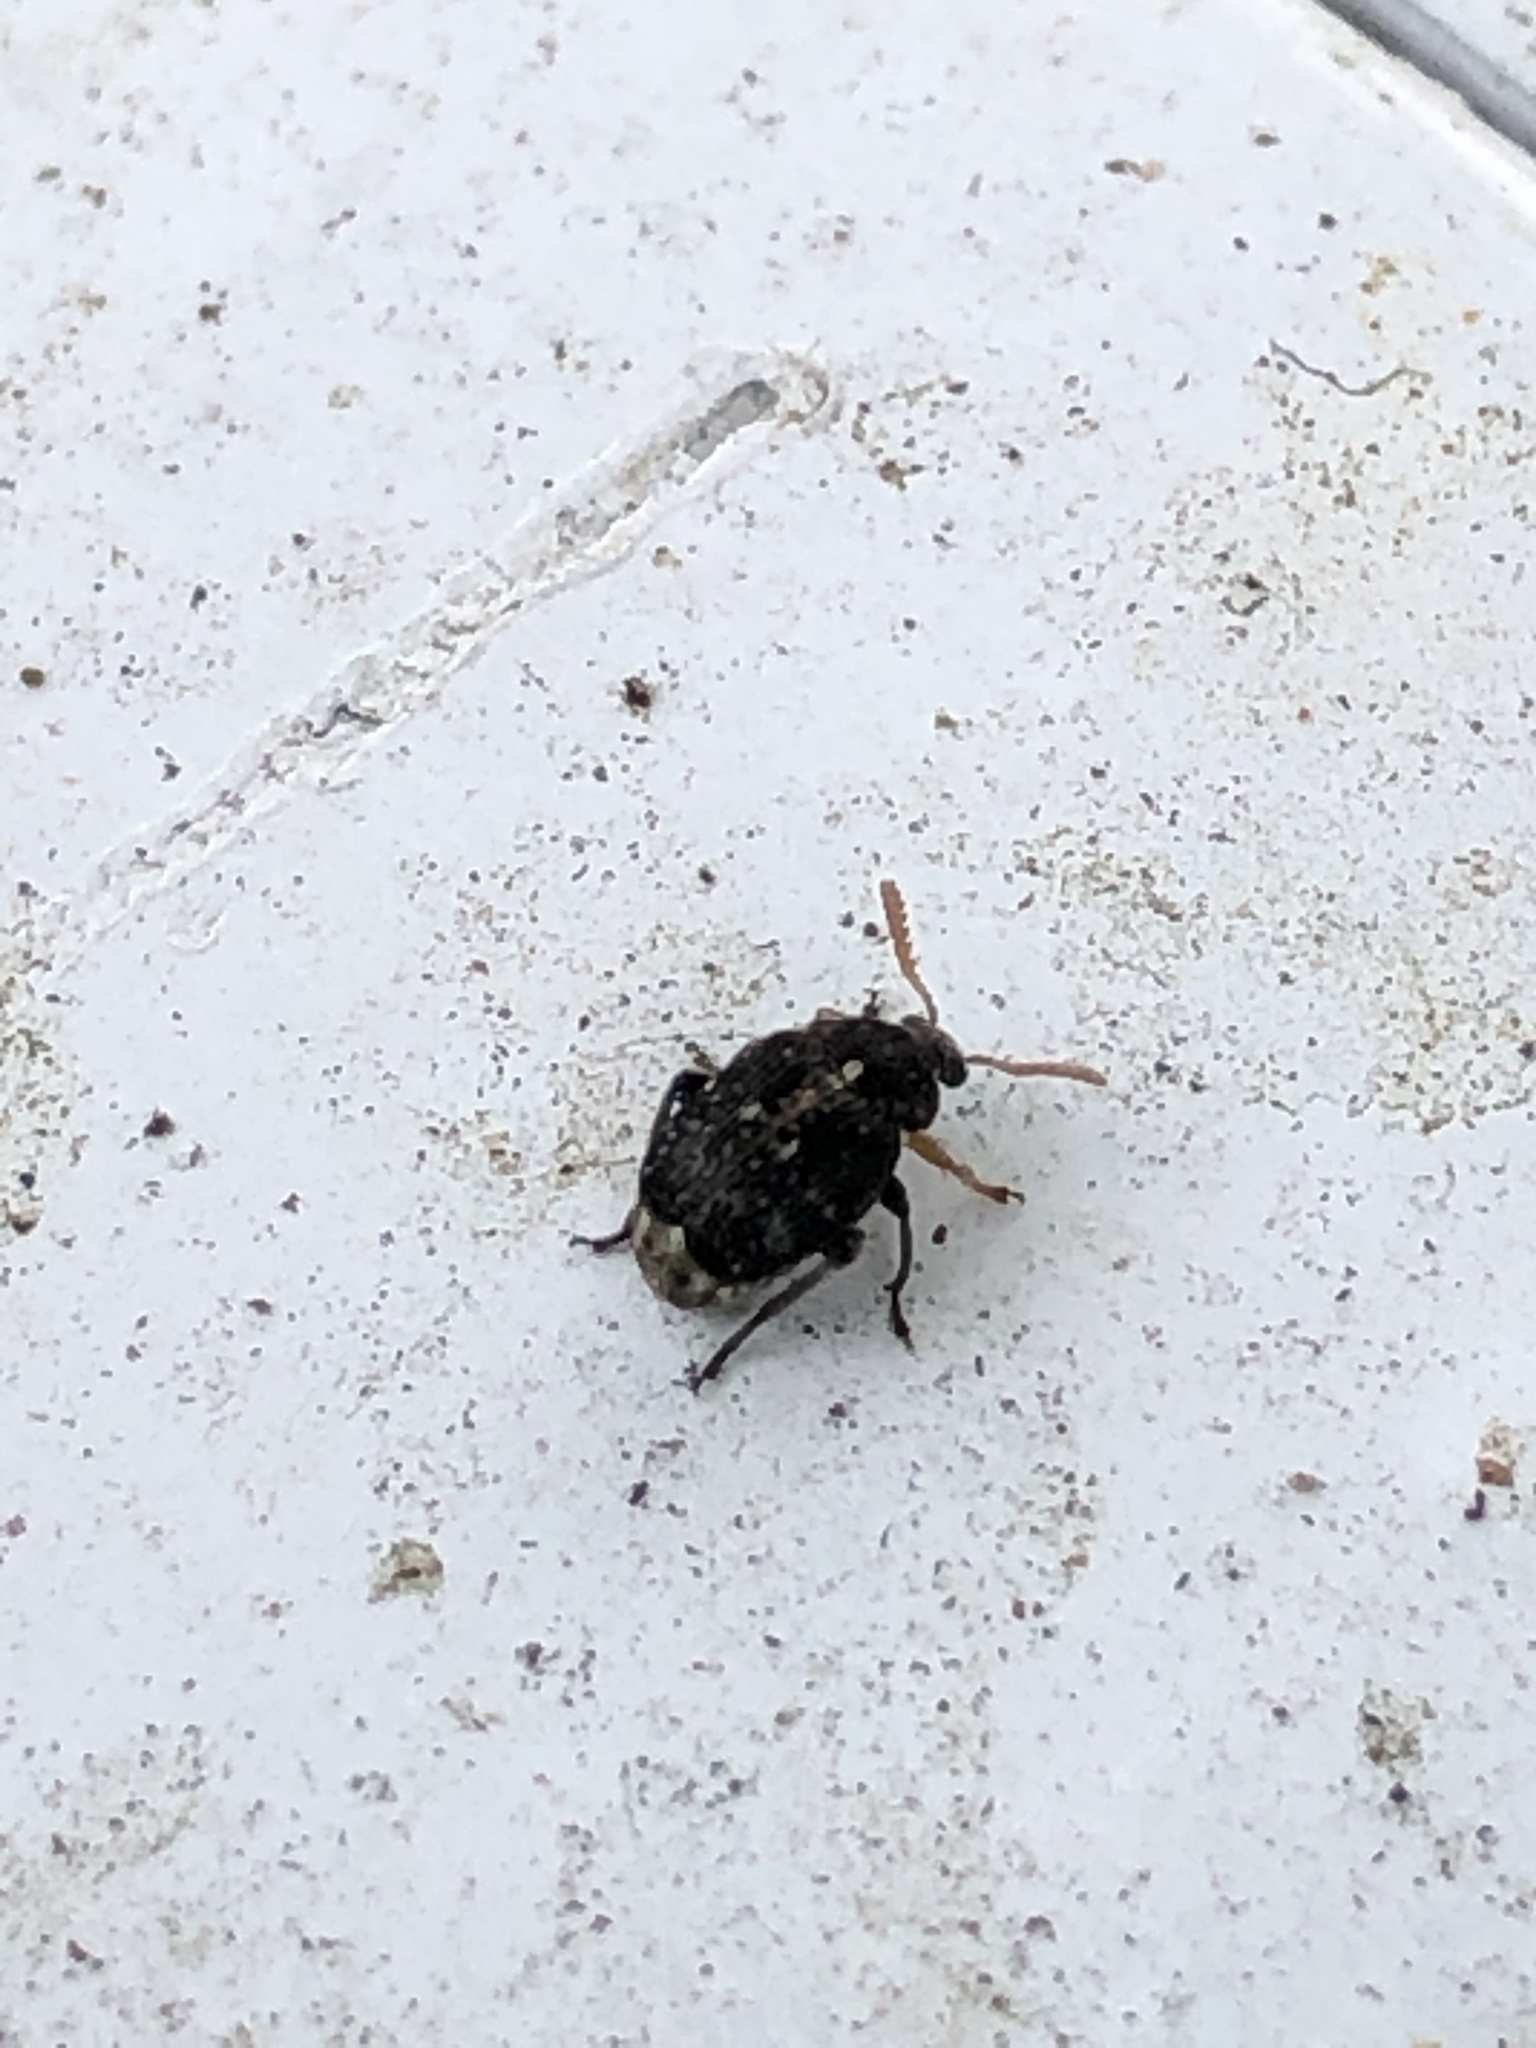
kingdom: Animalia
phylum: Arthropoda
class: Insecta
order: Coleoptera
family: Chrysomelidae
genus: Bruchus
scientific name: Bruchus brachialis
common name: Vetch bruchid
